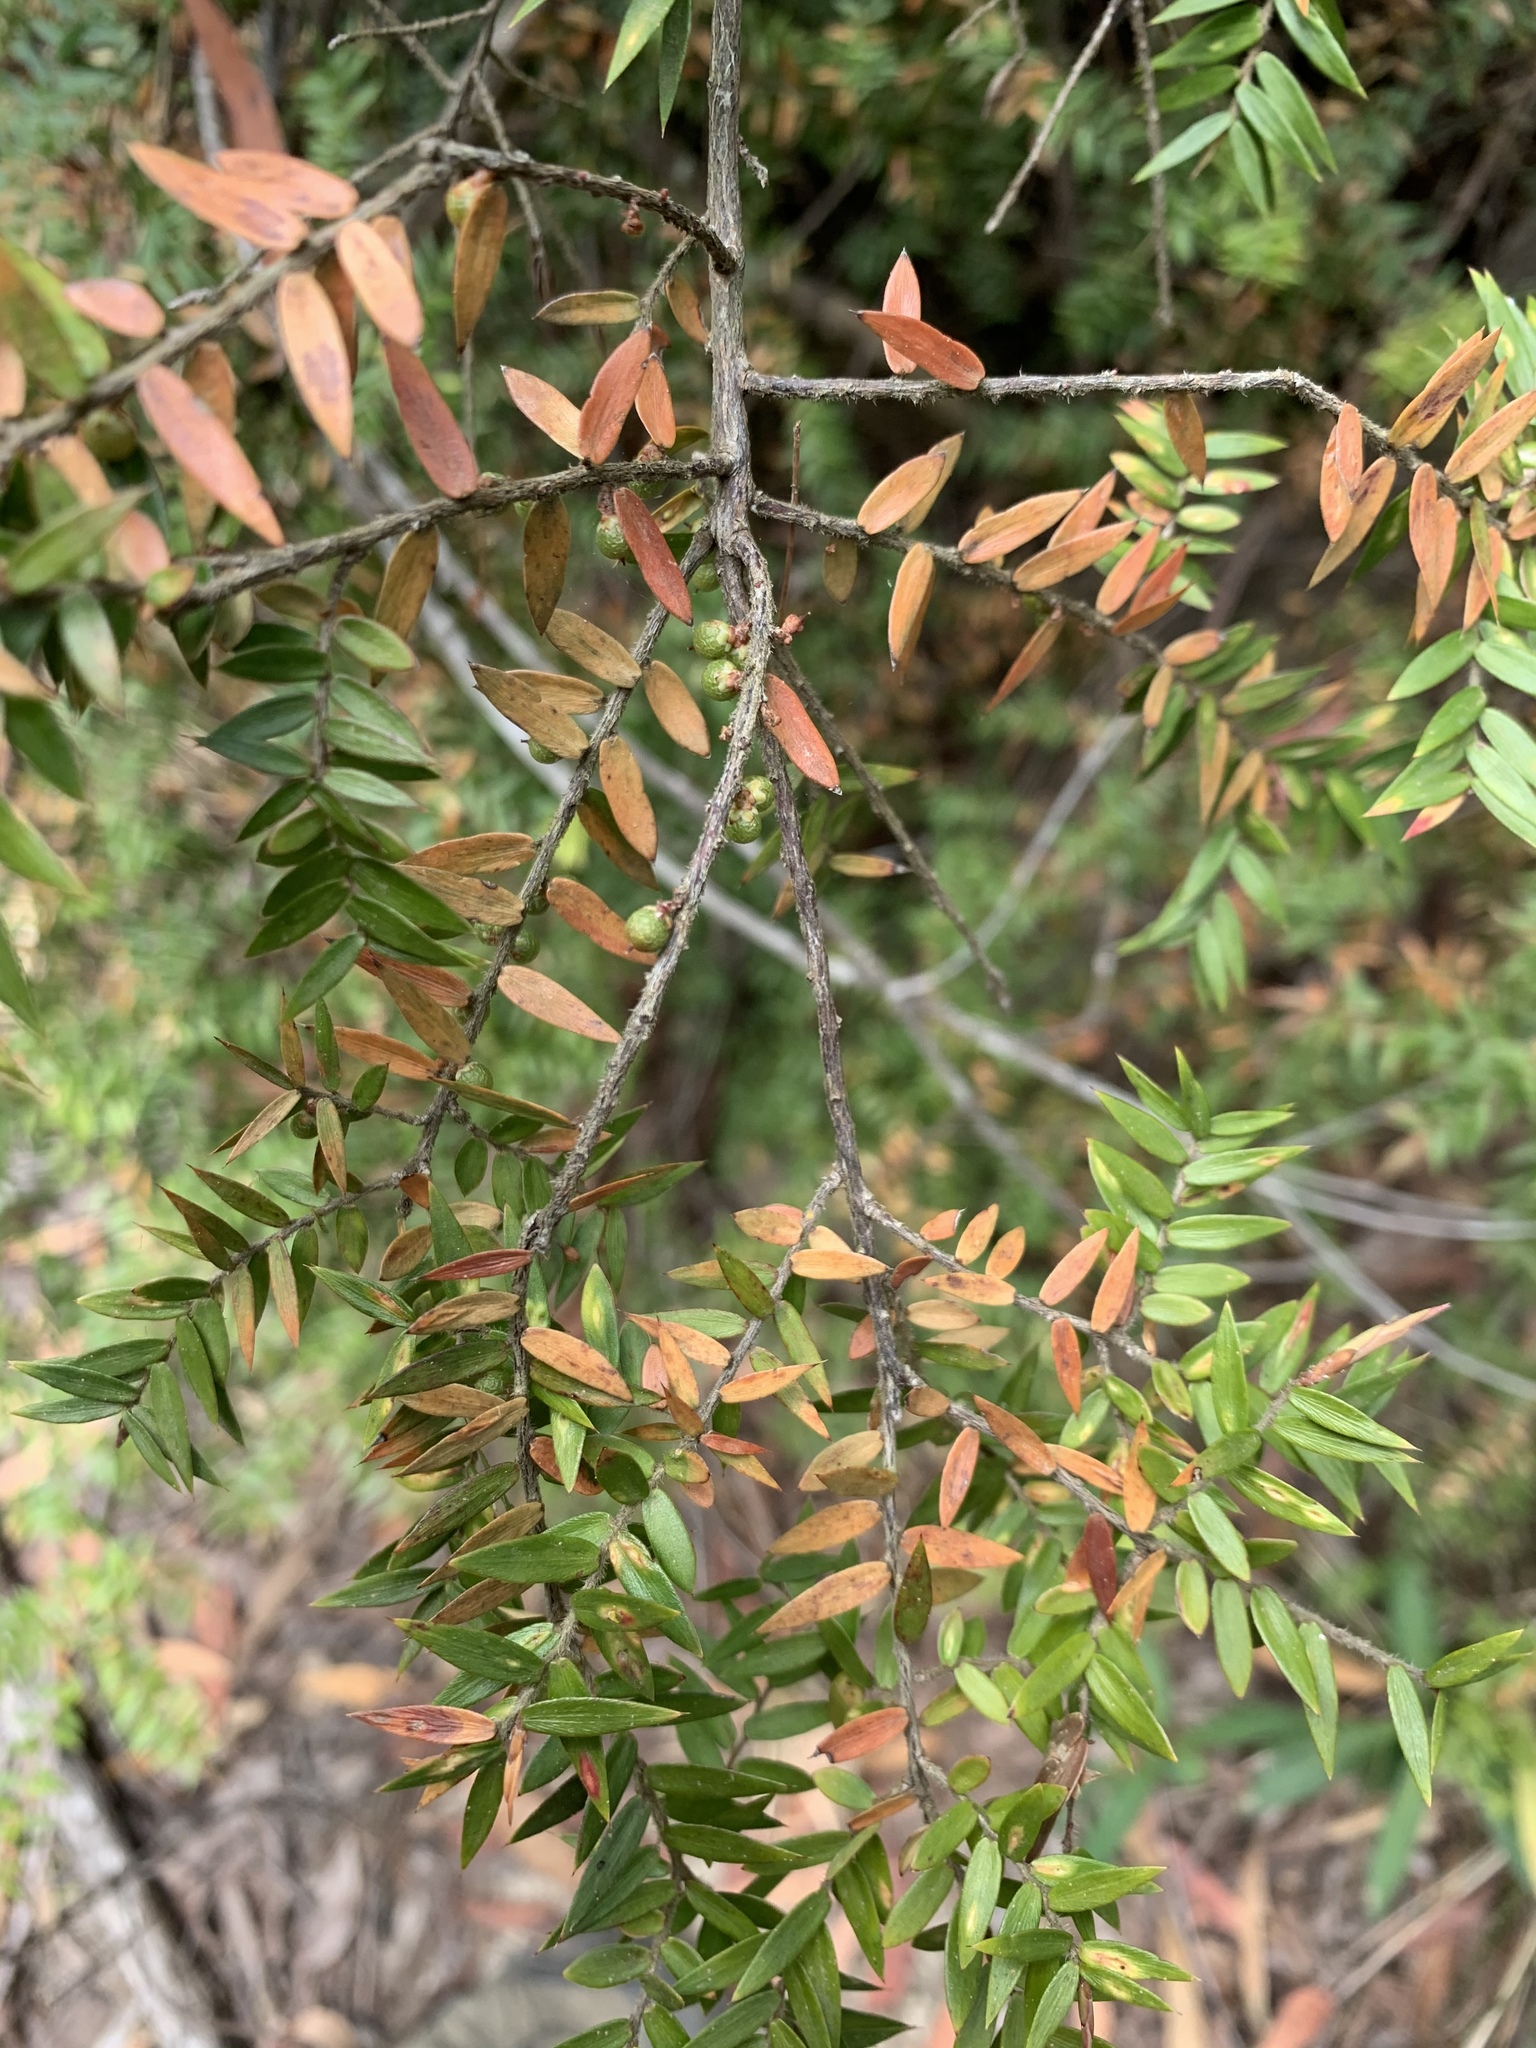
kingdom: Plantae
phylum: Tracheophyta
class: Magnoliopsida
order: Ericales
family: Ericaceae
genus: Acrotriche
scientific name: Acrotriche divaricata
